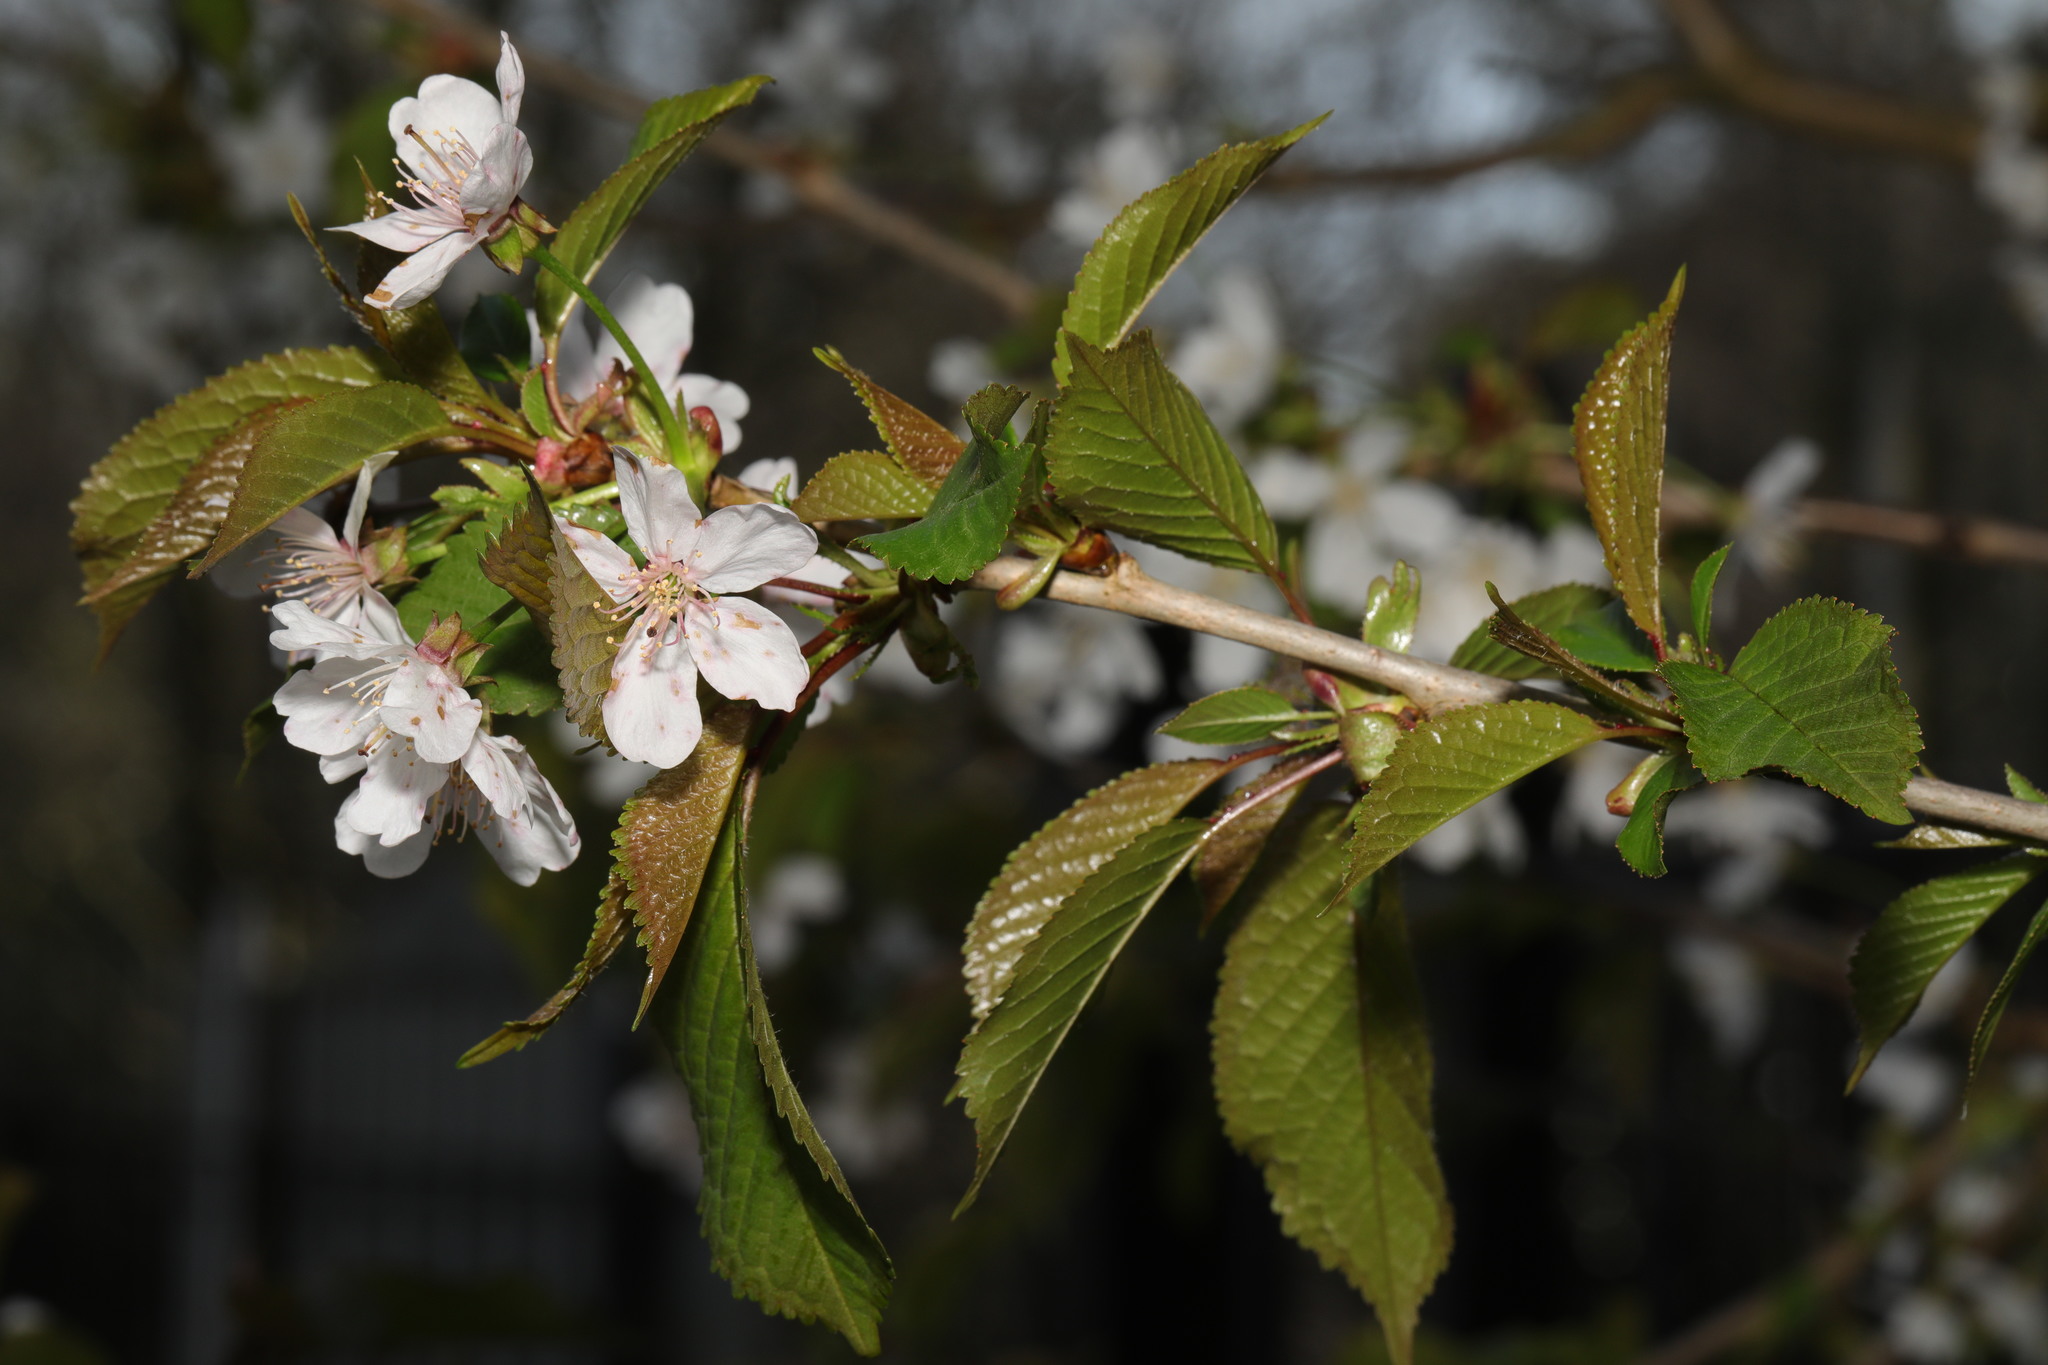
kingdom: Plantae
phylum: Tracheophyta
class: Magnoliopsida
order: Rosales
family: Rosaceae
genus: Prunus
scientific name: Prunus avium
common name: Sweet cherry
